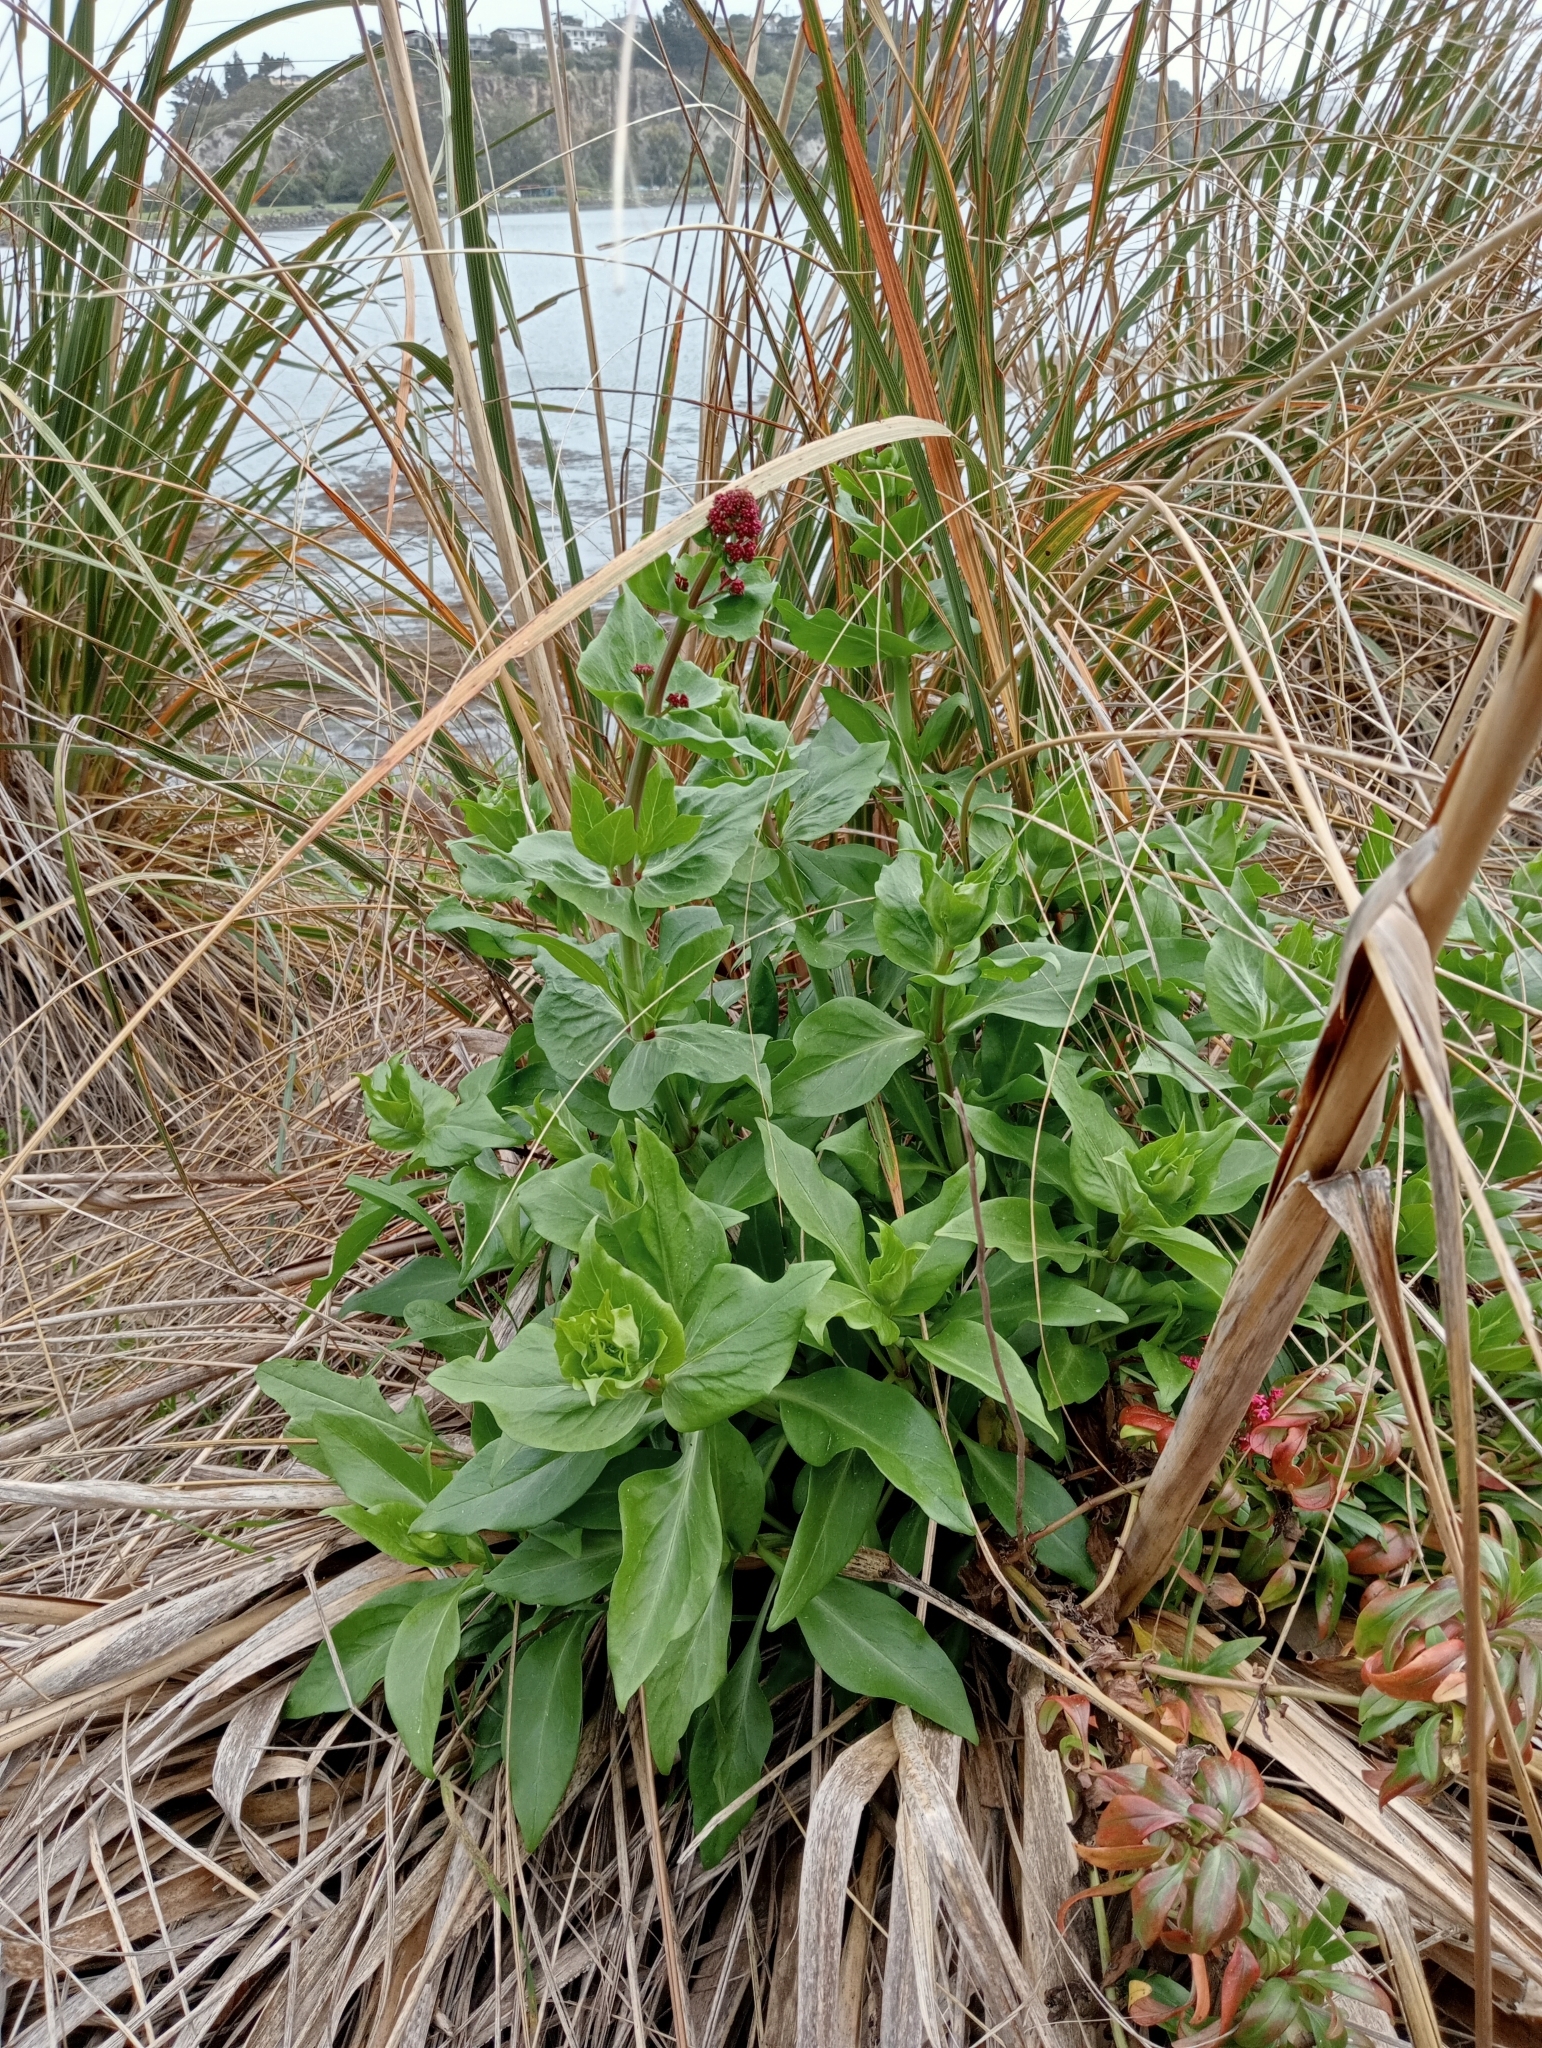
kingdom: Plantae
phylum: Tracheophyta
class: Magnoliopsida
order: Dipsacales
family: Caprifoliaceae
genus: Centranthus
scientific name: Centranthus ruber
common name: Red valerian
